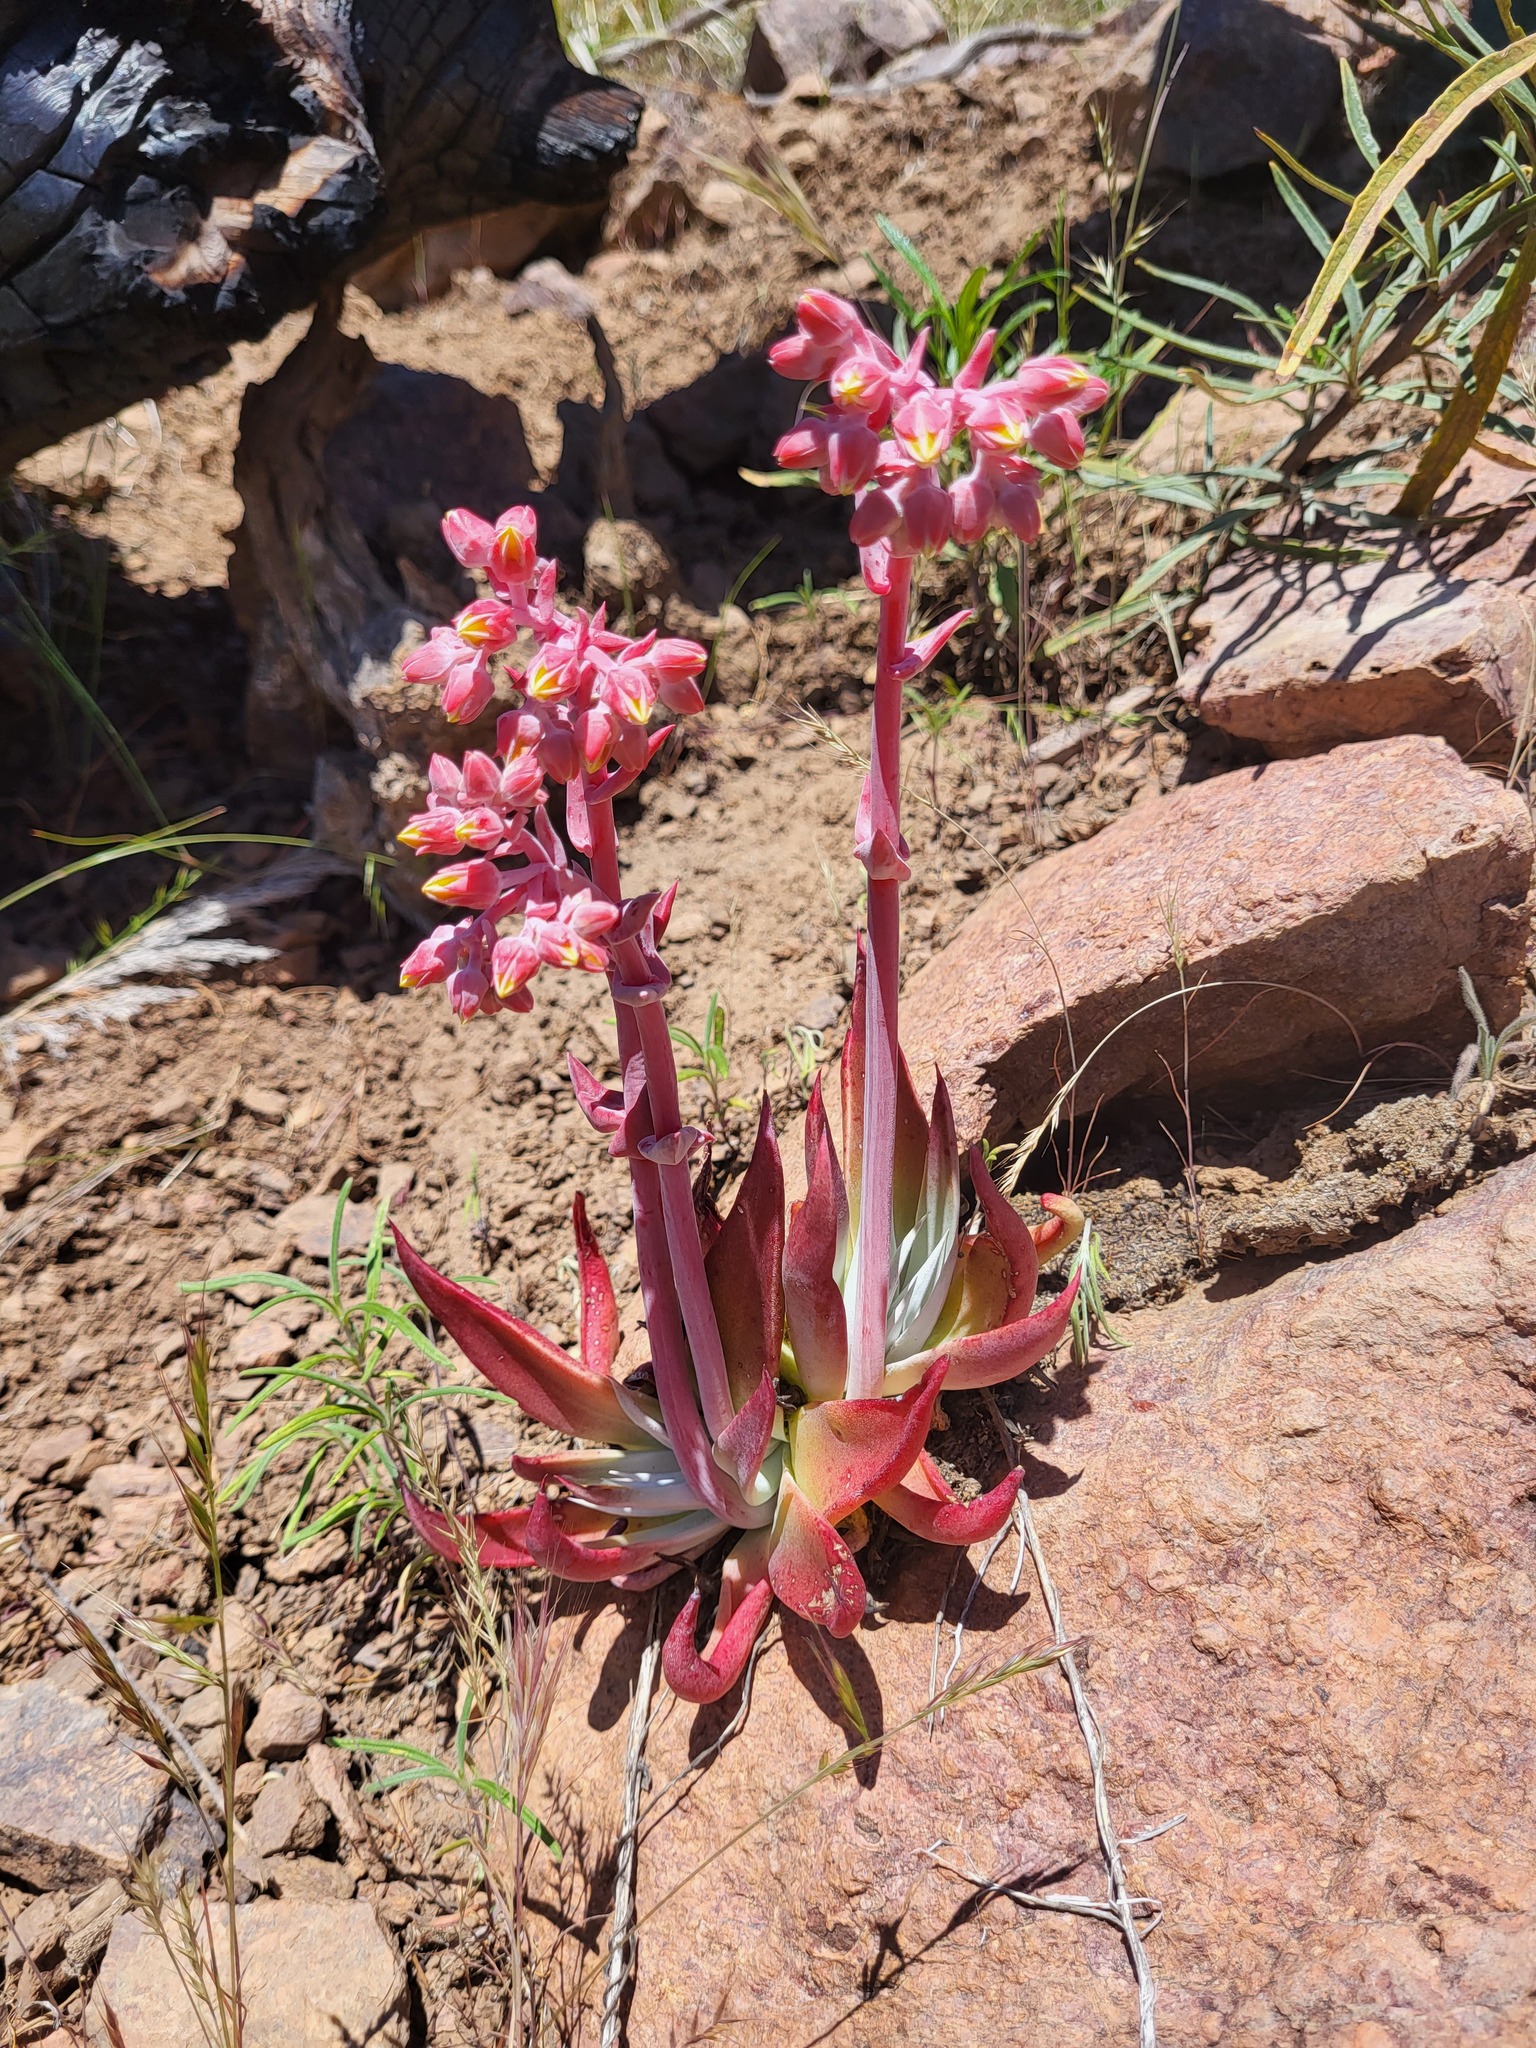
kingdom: Plantae
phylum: Tracheophyta
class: Magnoliopsida
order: Saxifragales
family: Crassulaceae
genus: Dudleya
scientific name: Dudleya collomiae
